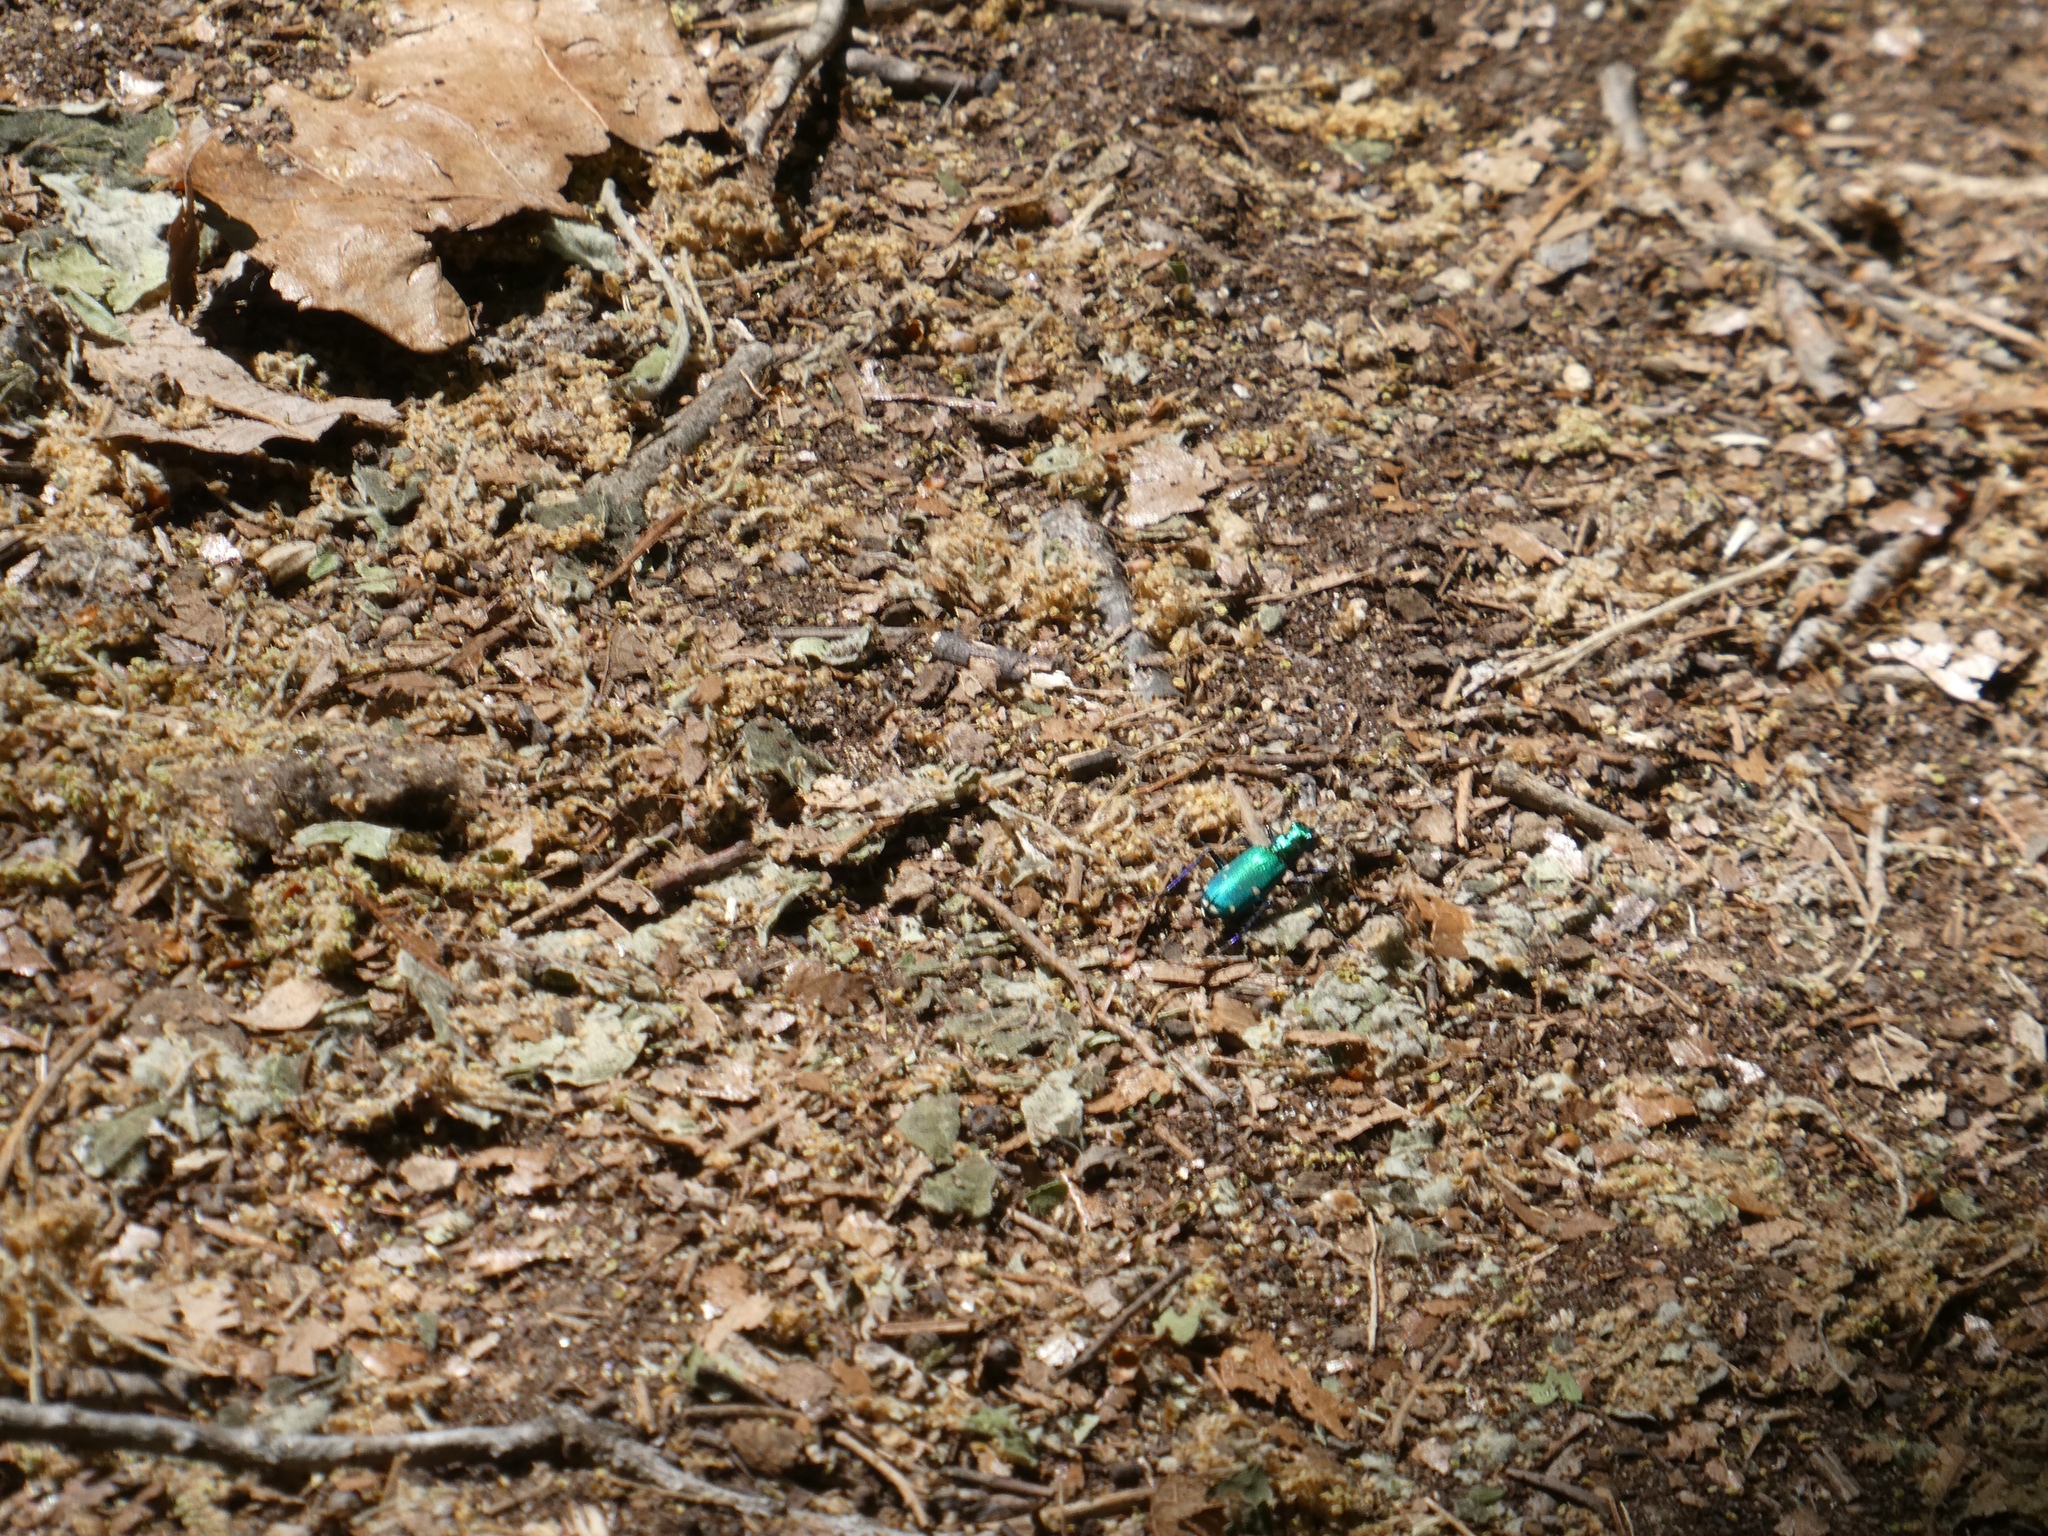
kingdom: Animalia
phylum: Arthropoda
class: Insecta
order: Coleoptera
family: Carabidae
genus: Cicindela
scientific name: Cicindela sexguttata
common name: Six-spotted tiger beetle
